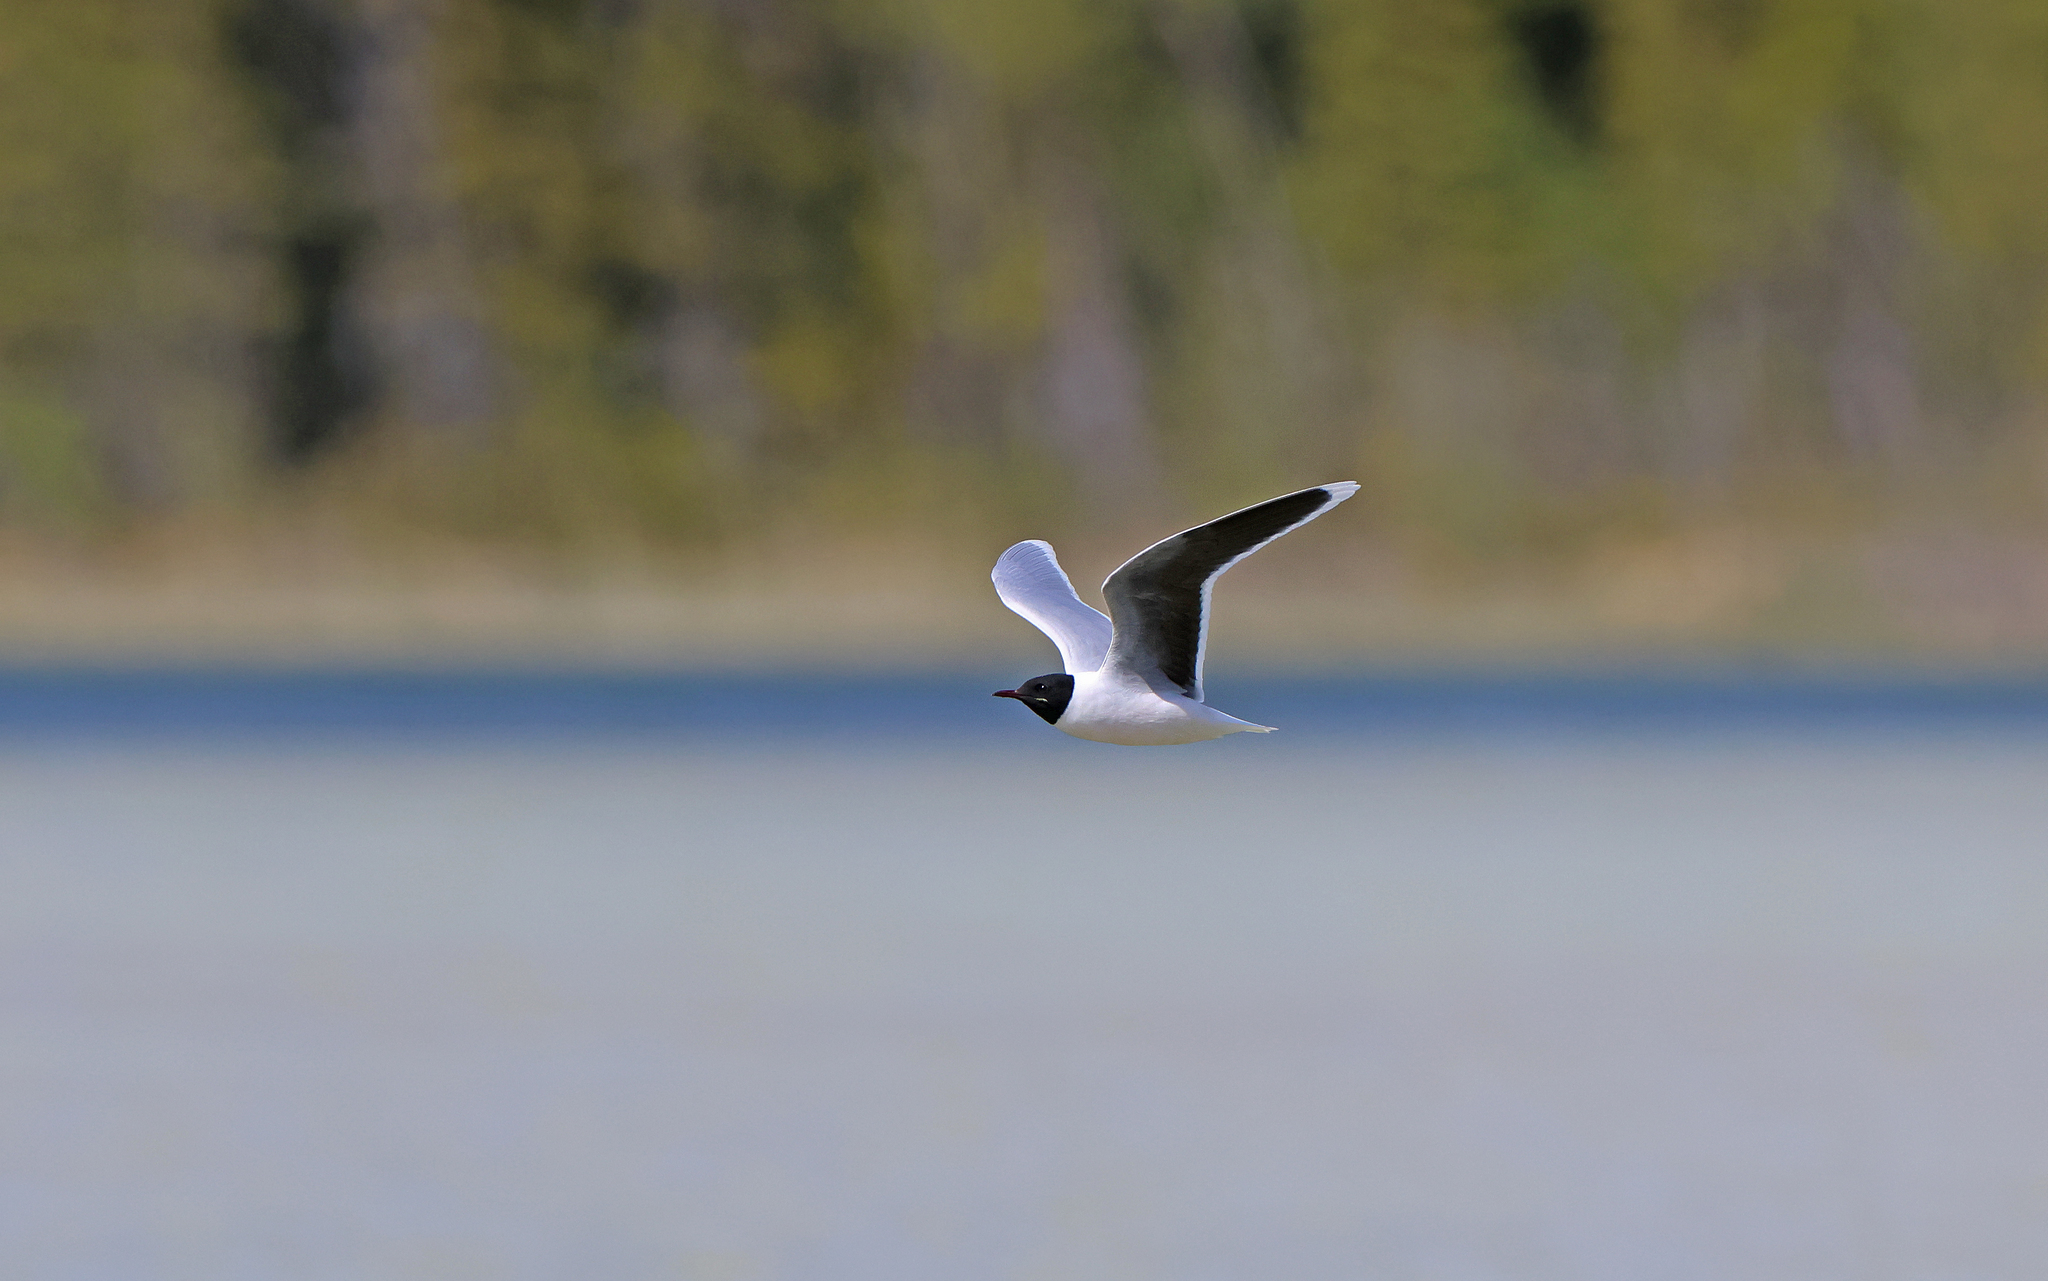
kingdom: Animalia
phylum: Chordata
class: Aves
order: Charadriiformes
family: Laridae
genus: Hydrocoloeus
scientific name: Hydrocoloeus minutus
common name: Little gull
